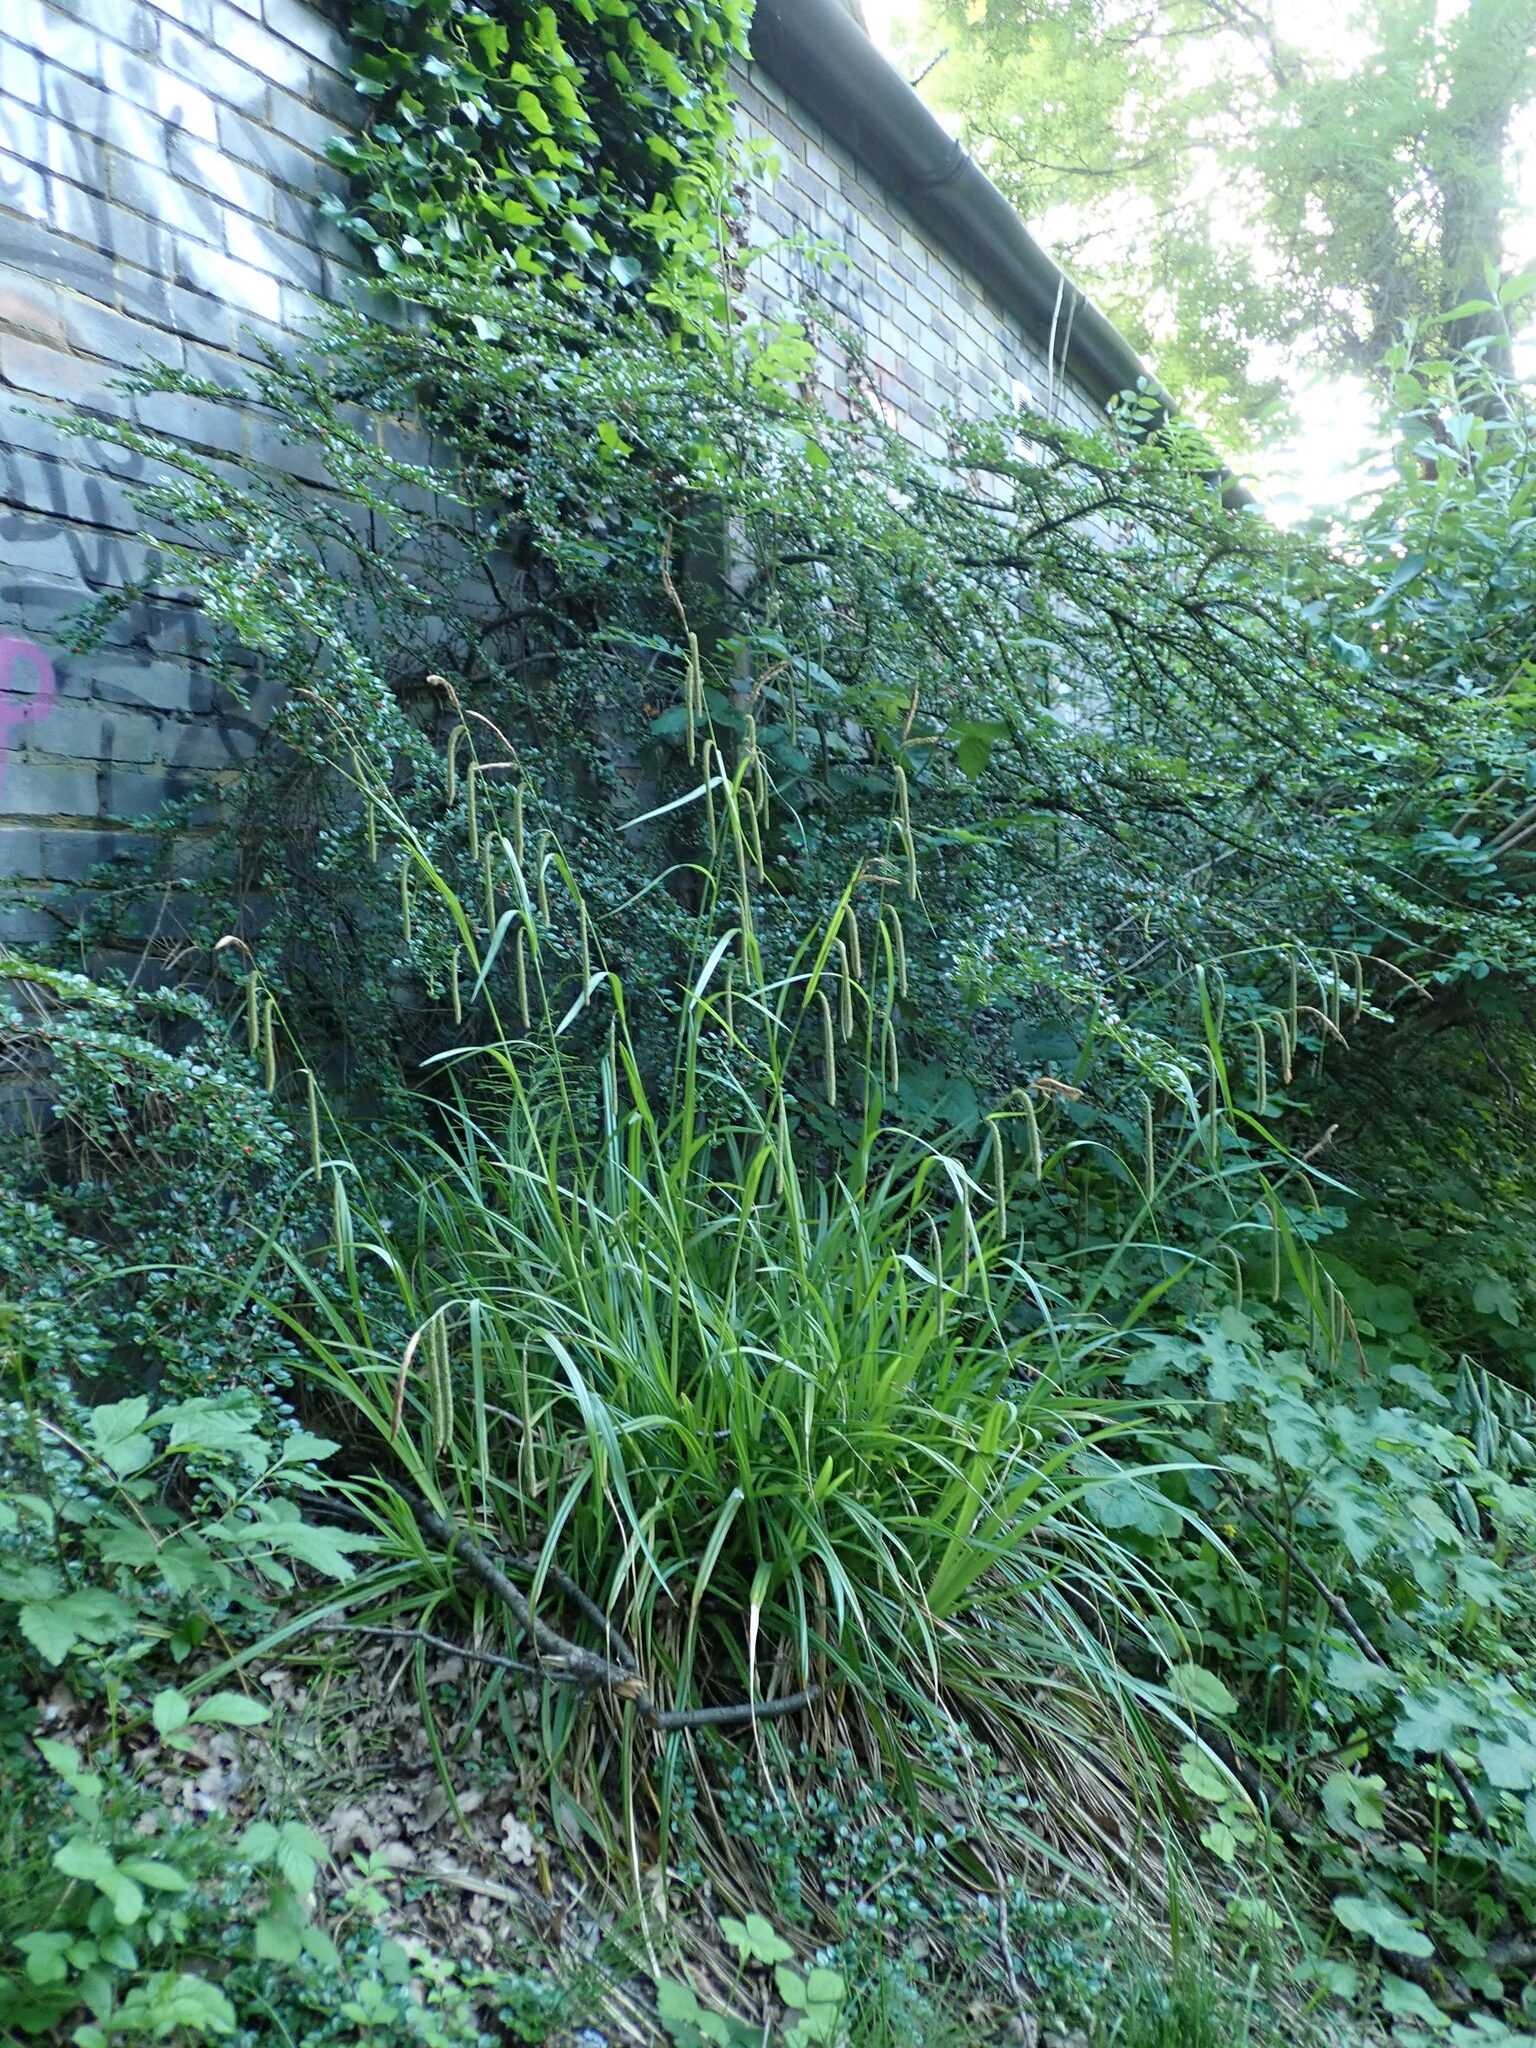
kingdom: Plantae
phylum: Tracheophyta
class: Liliopsida
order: Poales
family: Cyperaceae
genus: Carex
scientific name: Carex pendula
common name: Pendulous sedge
